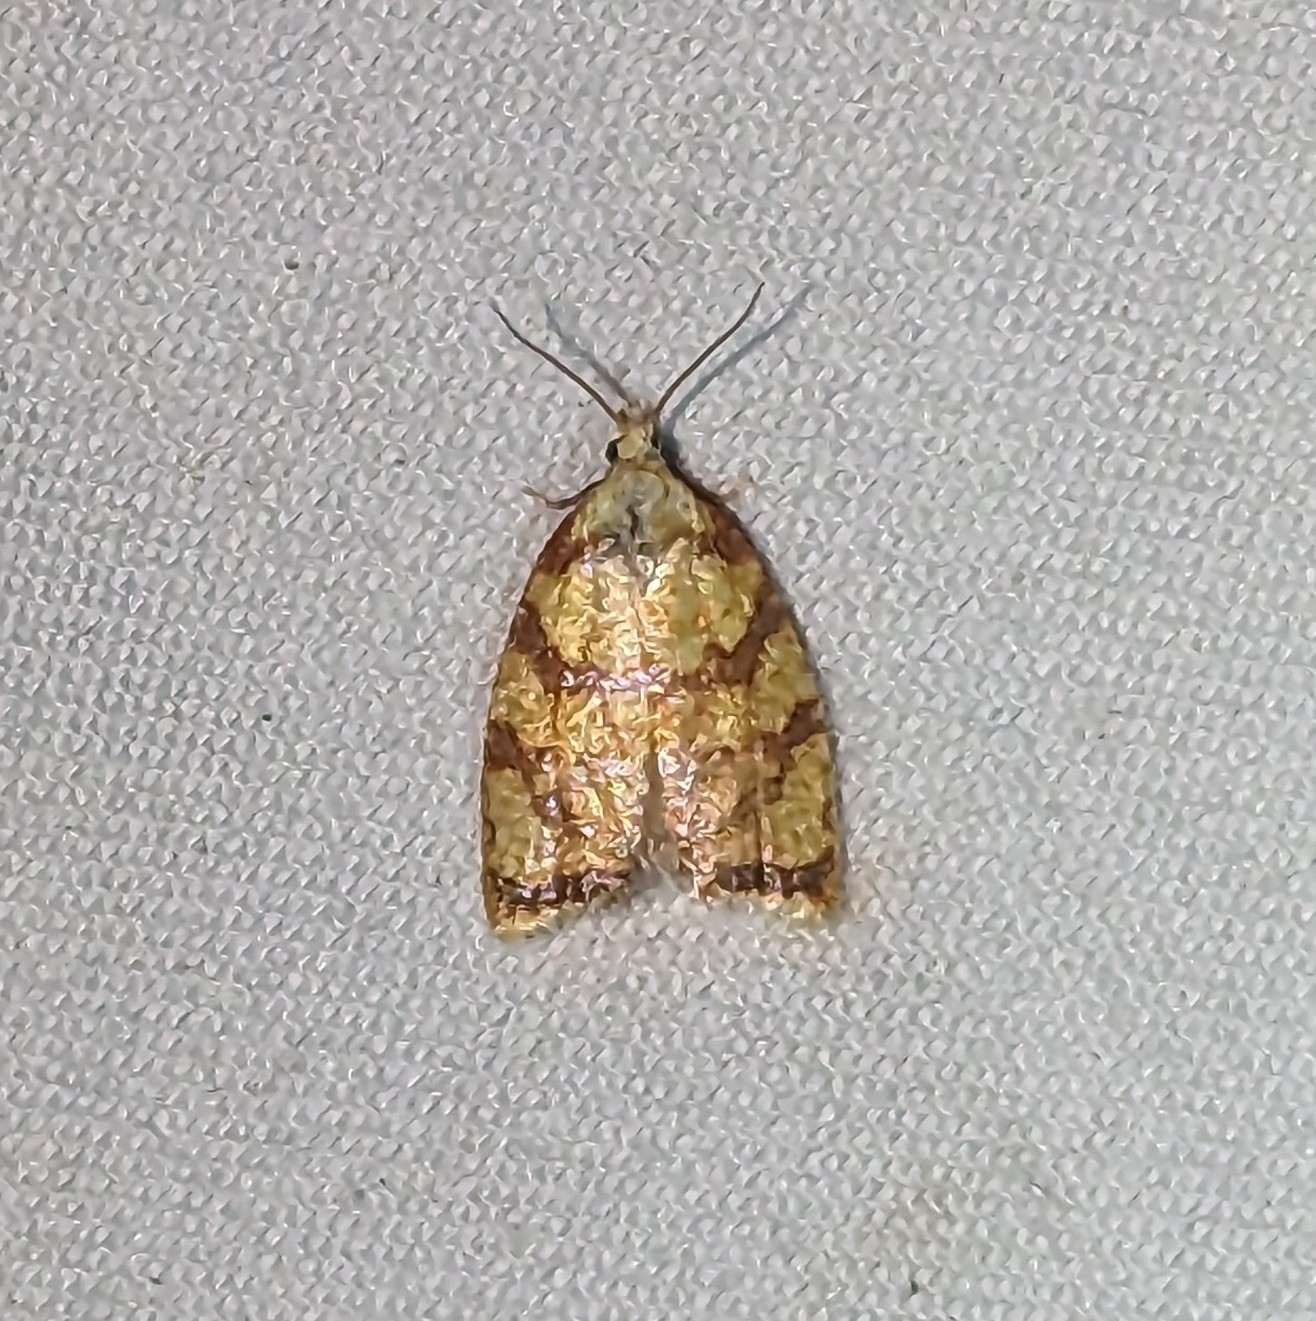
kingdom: Animalia
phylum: Arthropoda
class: Insecta
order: Lepidoptera
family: Tortricidae
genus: Acleris
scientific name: Acleris albicomana
